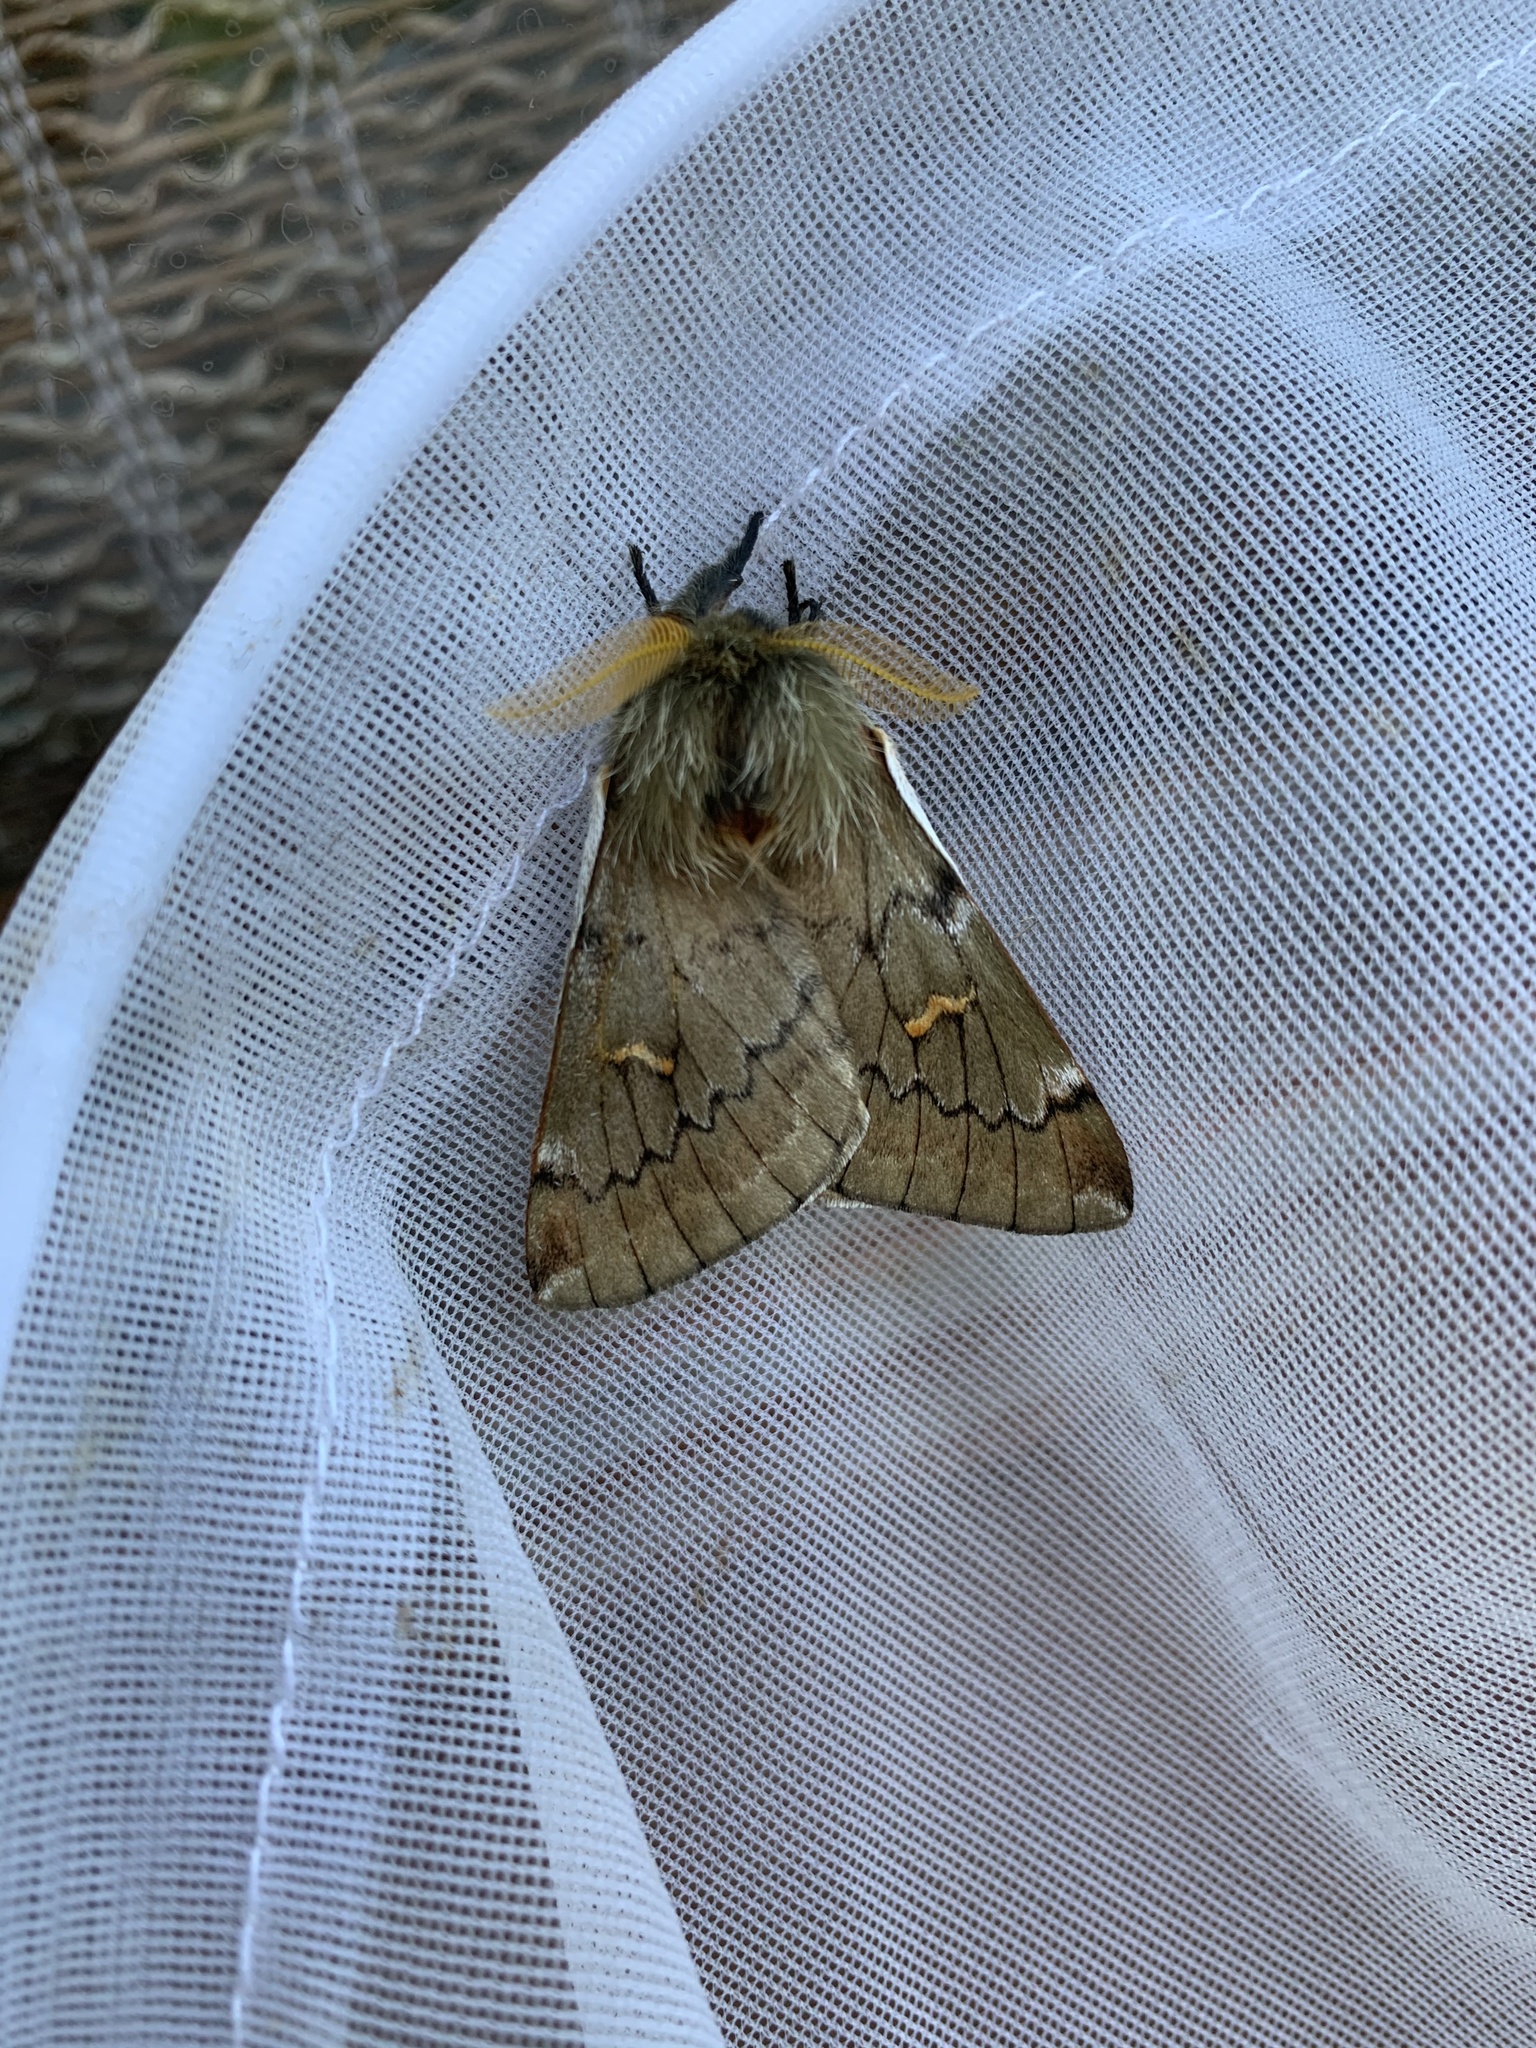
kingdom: Animalia
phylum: Arthropoda
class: Insecta
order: Lepidoptera
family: Saturniidae
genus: Ormiscodes
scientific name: Ormiscodes joiceyi
